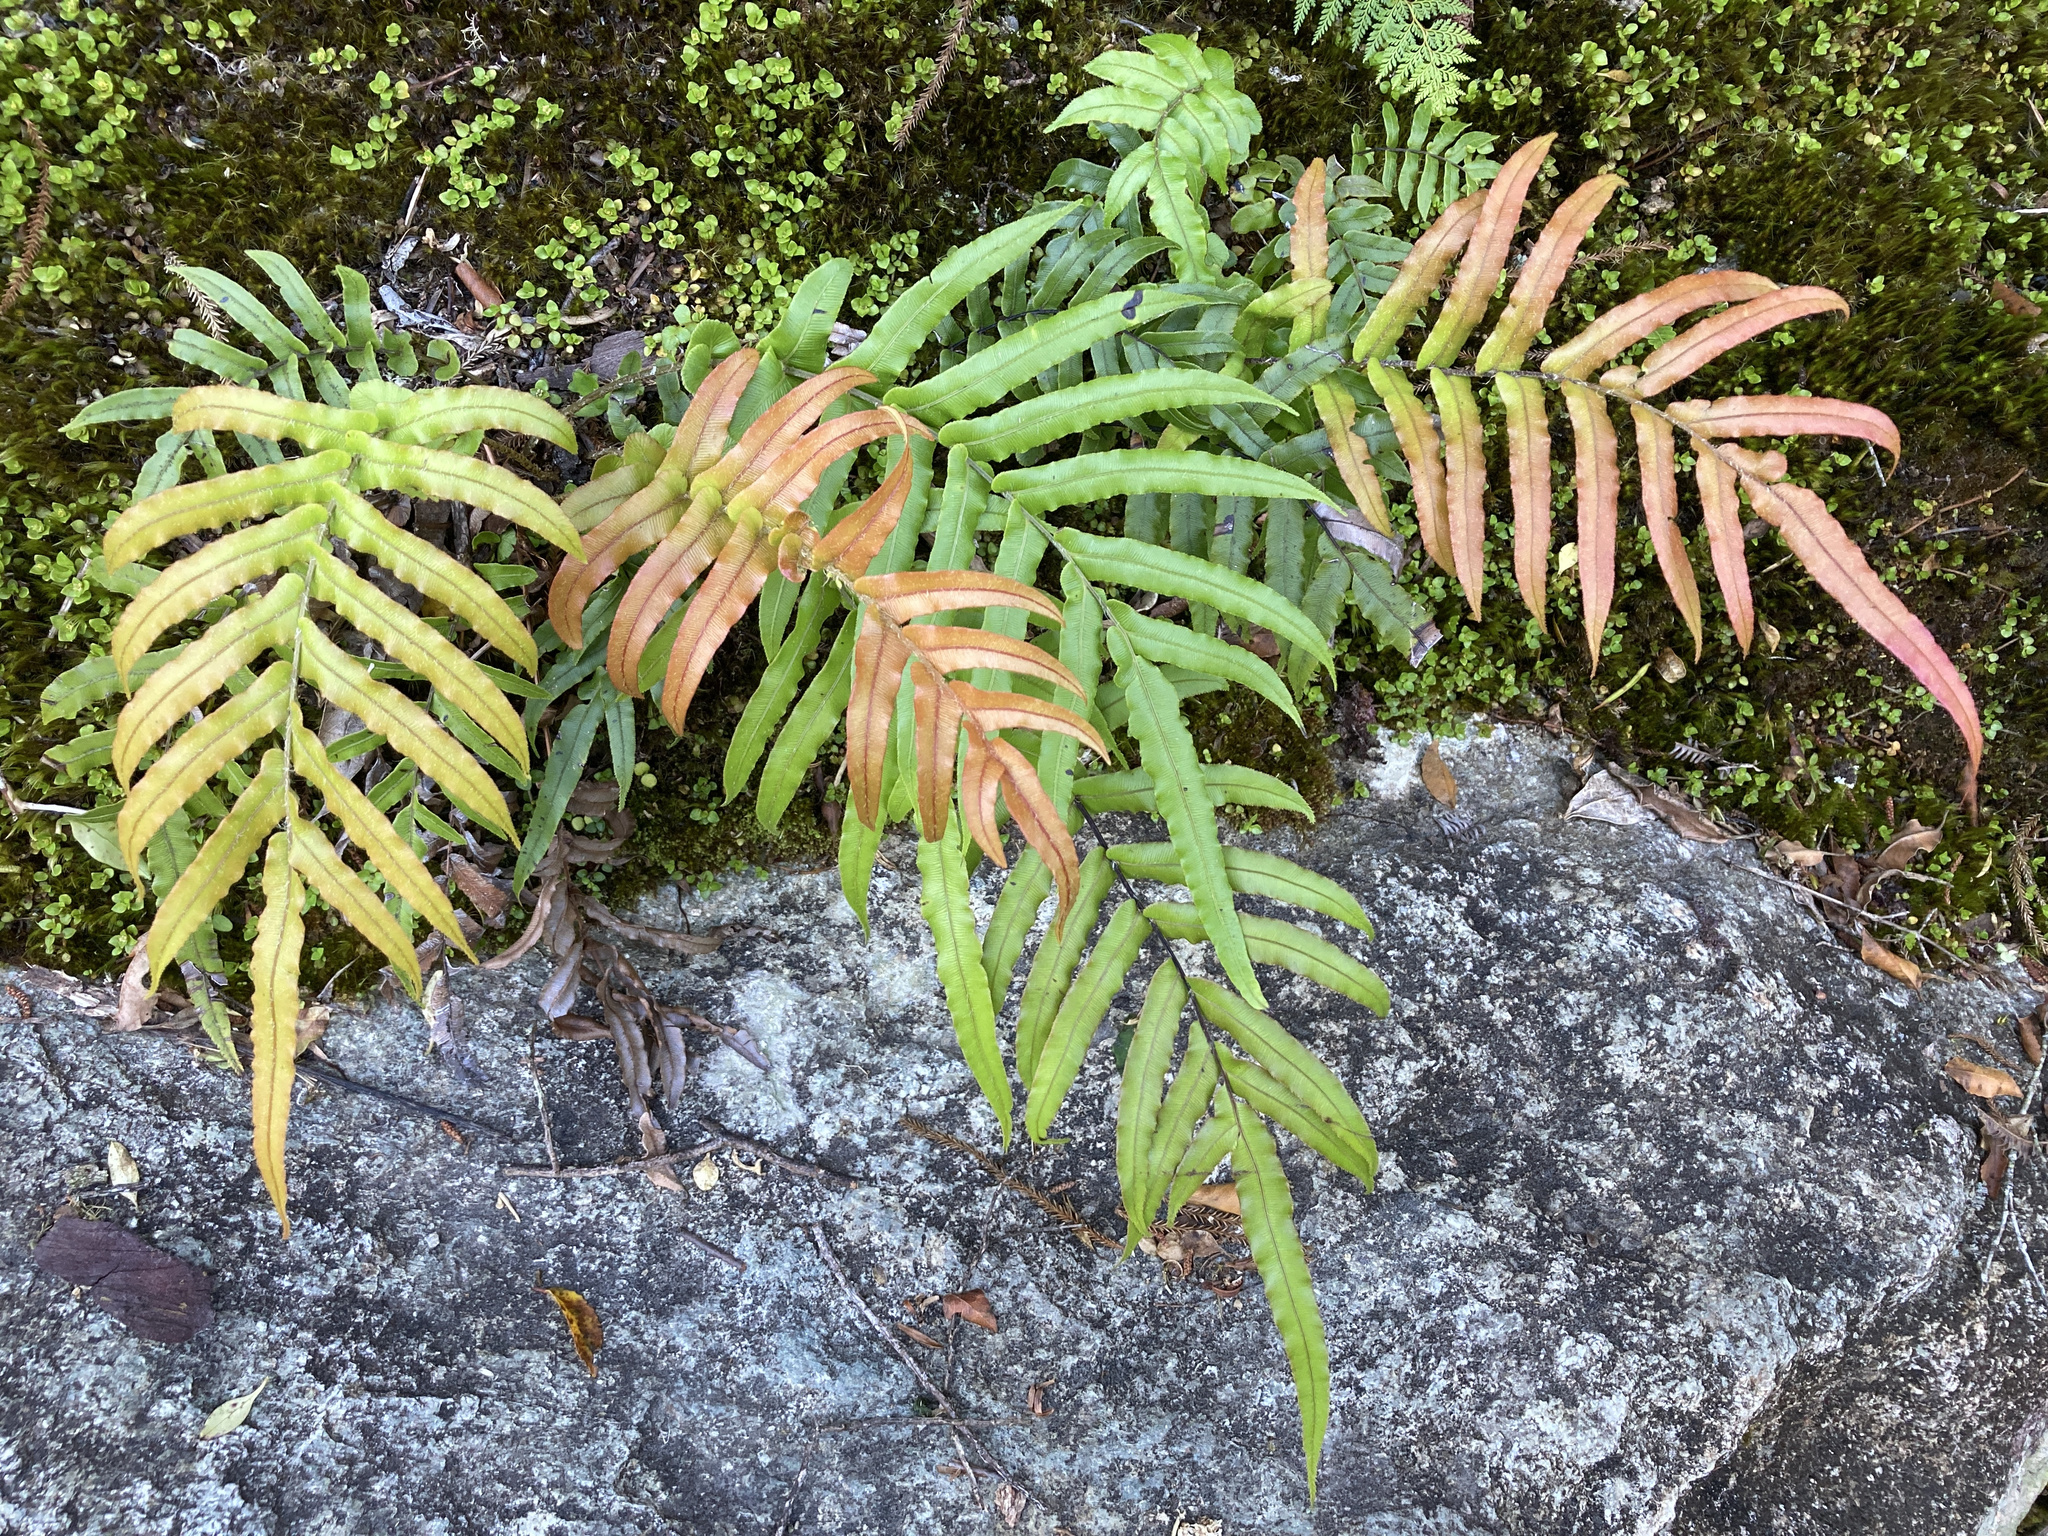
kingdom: Plantae
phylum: Tracheophyta
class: Polypodiopsida
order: Polypodiales
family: Blechnaceae
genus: Parablechnum
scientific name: Parablechnum novae-zelandiae
